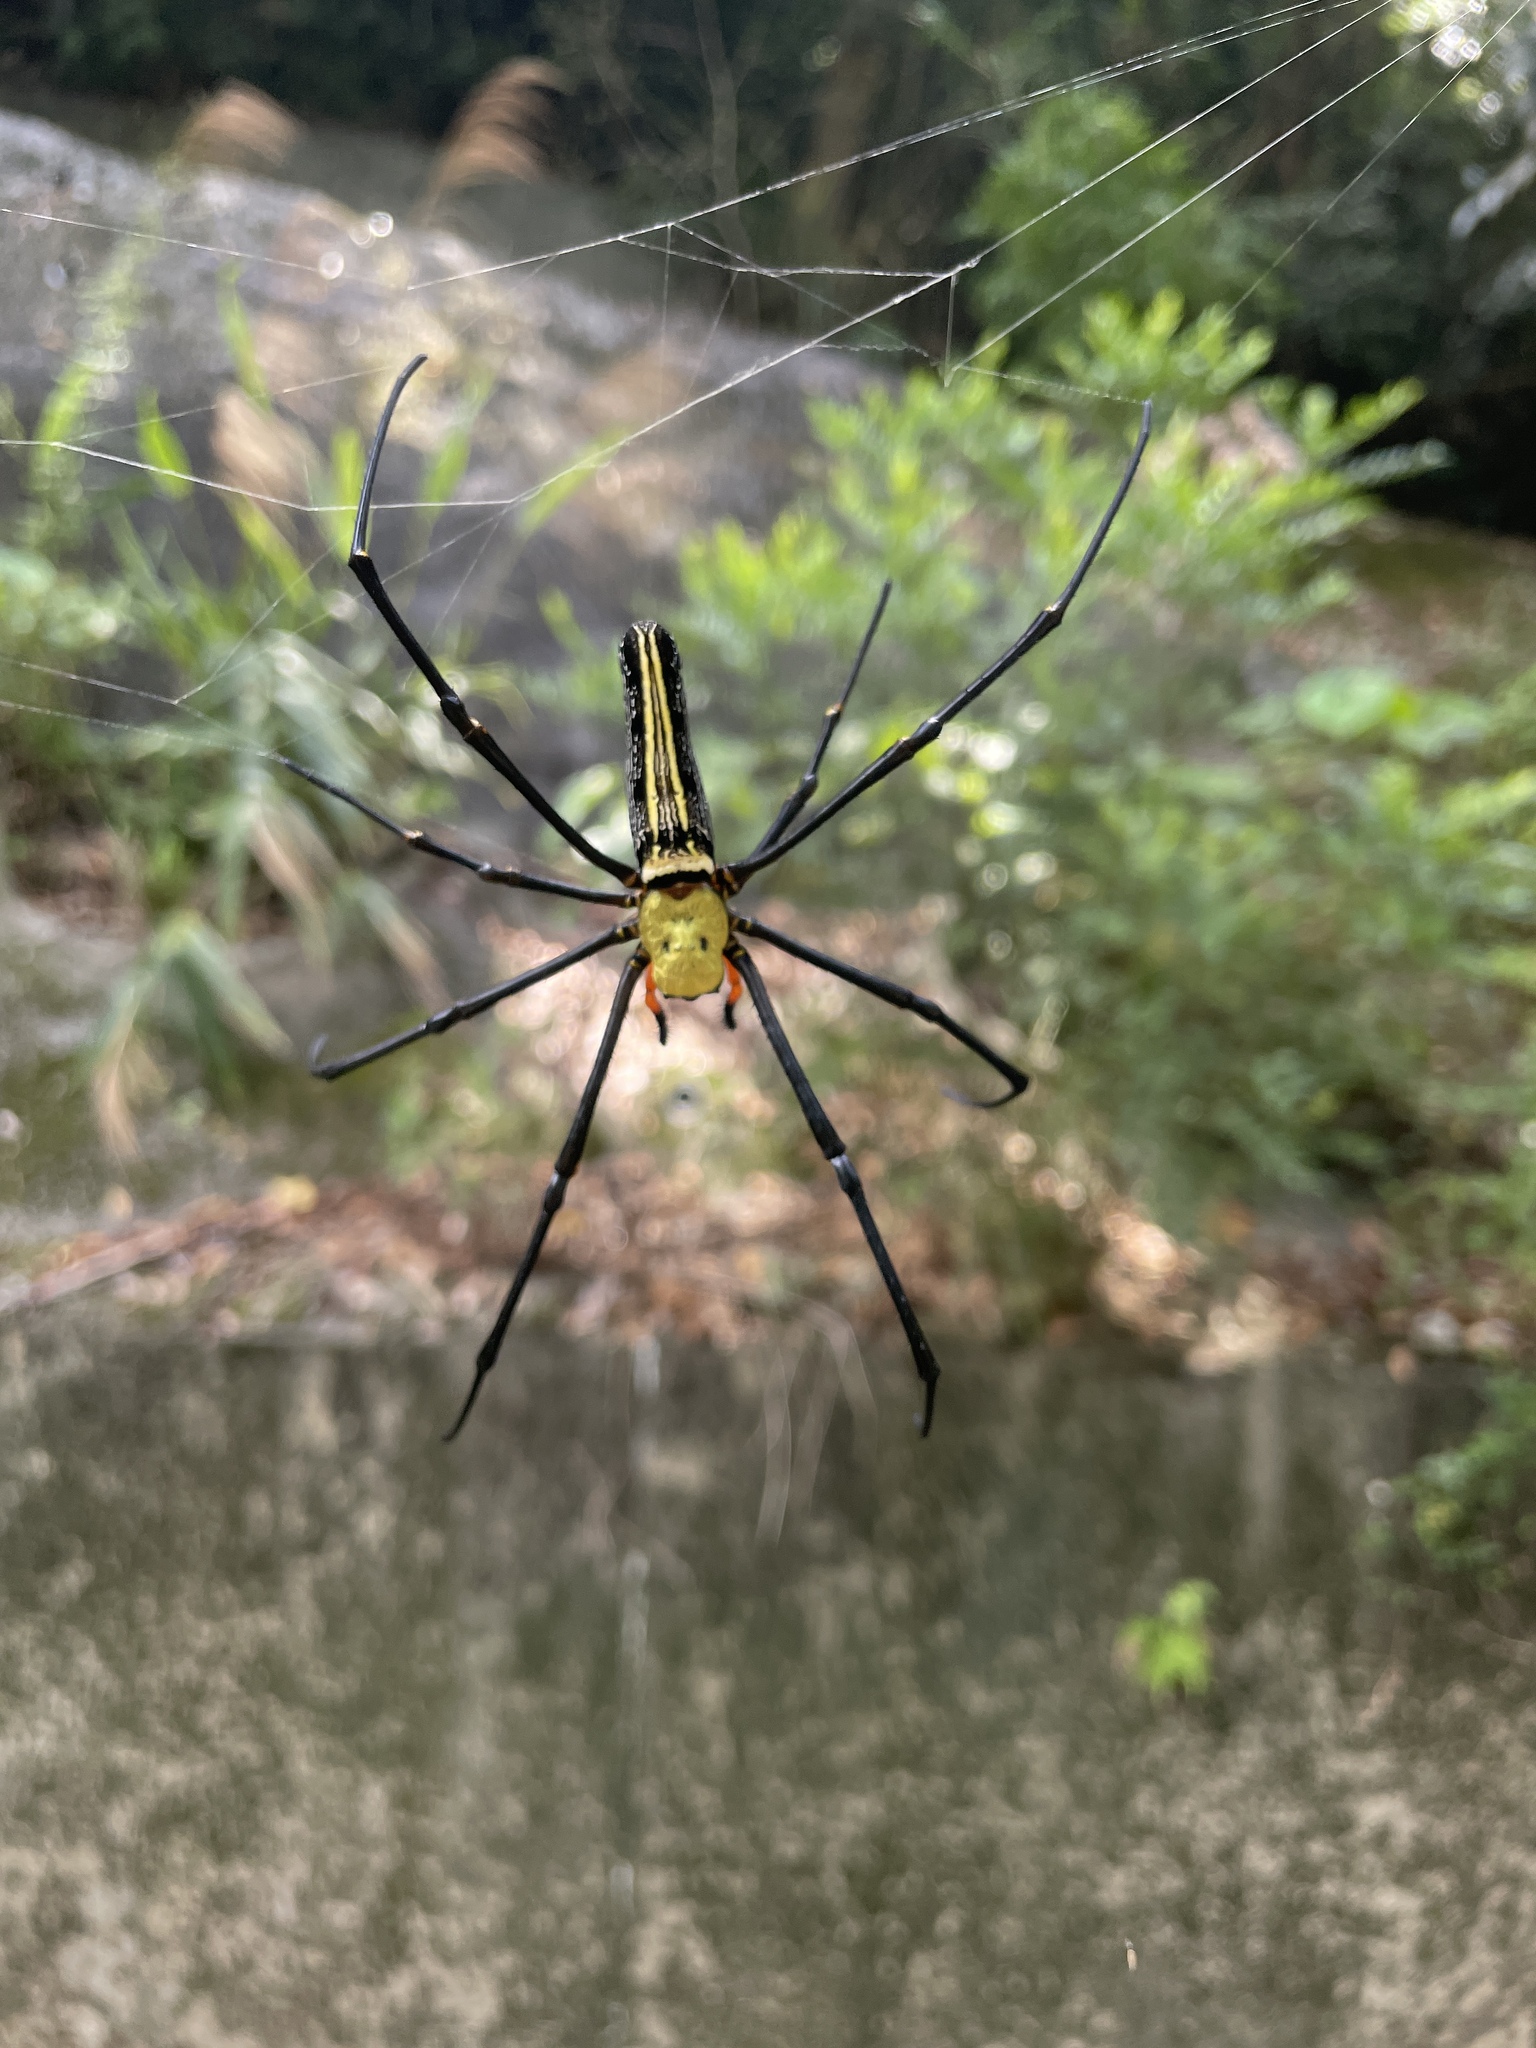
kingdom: Animalia
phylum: Arthropoda
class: Arachnida
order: Araneae
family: Araneidae
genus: Nephila
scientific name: Nephila pilipes
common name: Giant golden orb weaver
